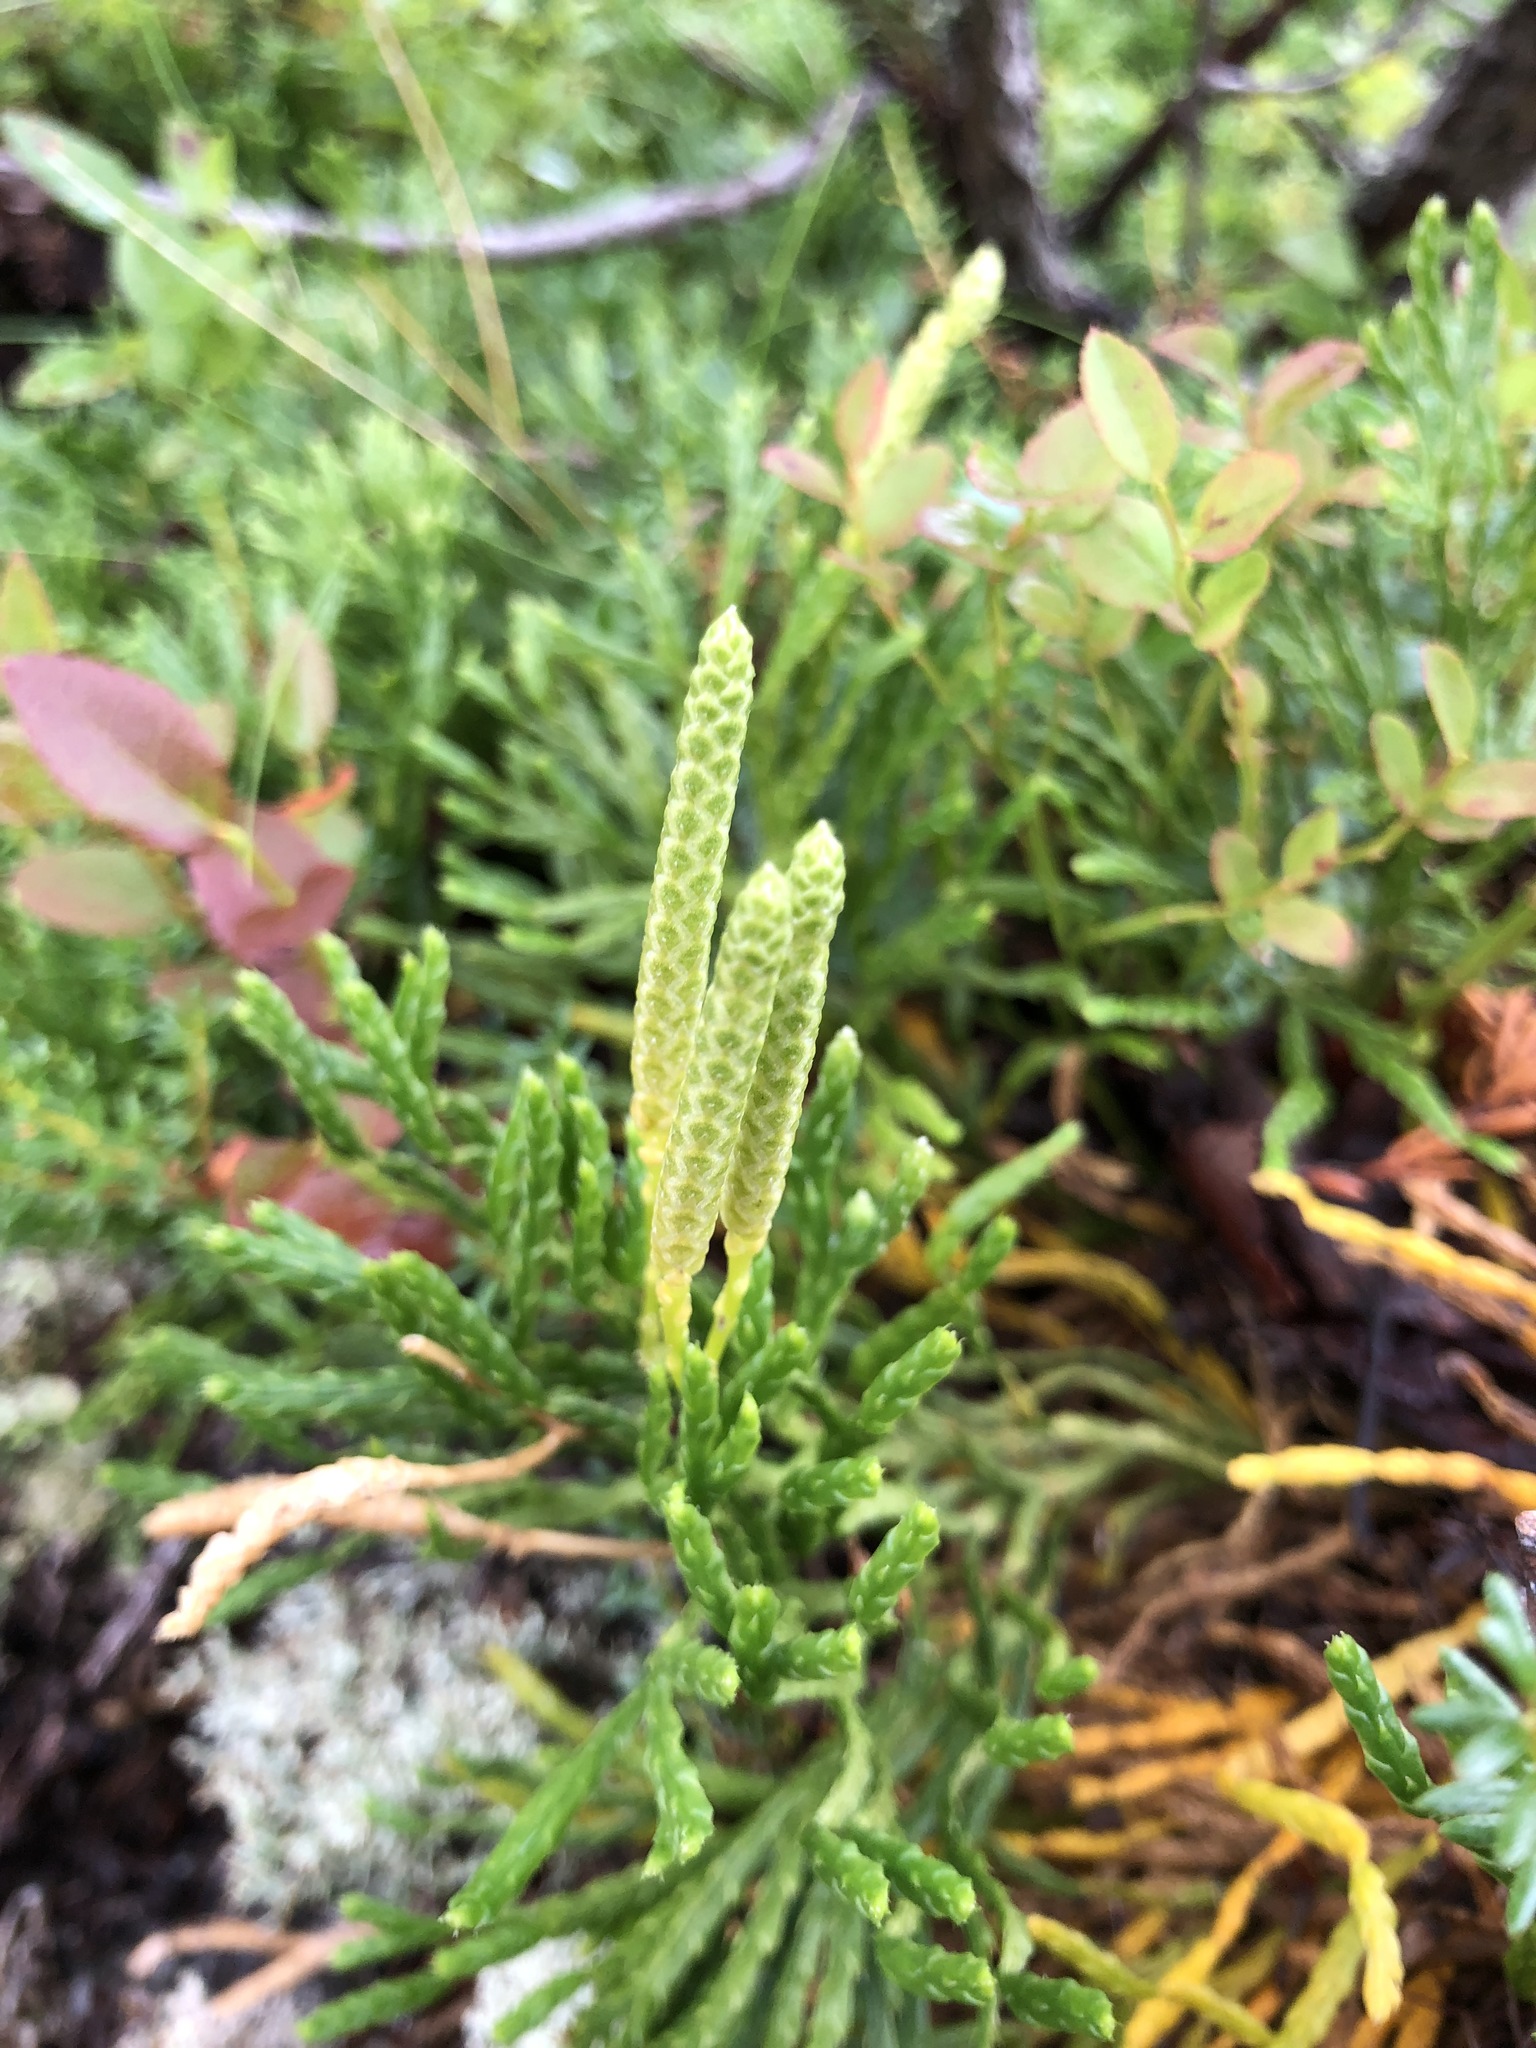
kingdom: Plantae
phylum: Tracheophyta
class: Lycopodiopsida
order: Lycopodiales
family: Lycopodiaceae
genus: Diphasiastrum
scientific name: Diphasiastrum complanatum
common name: Northern running-pine
